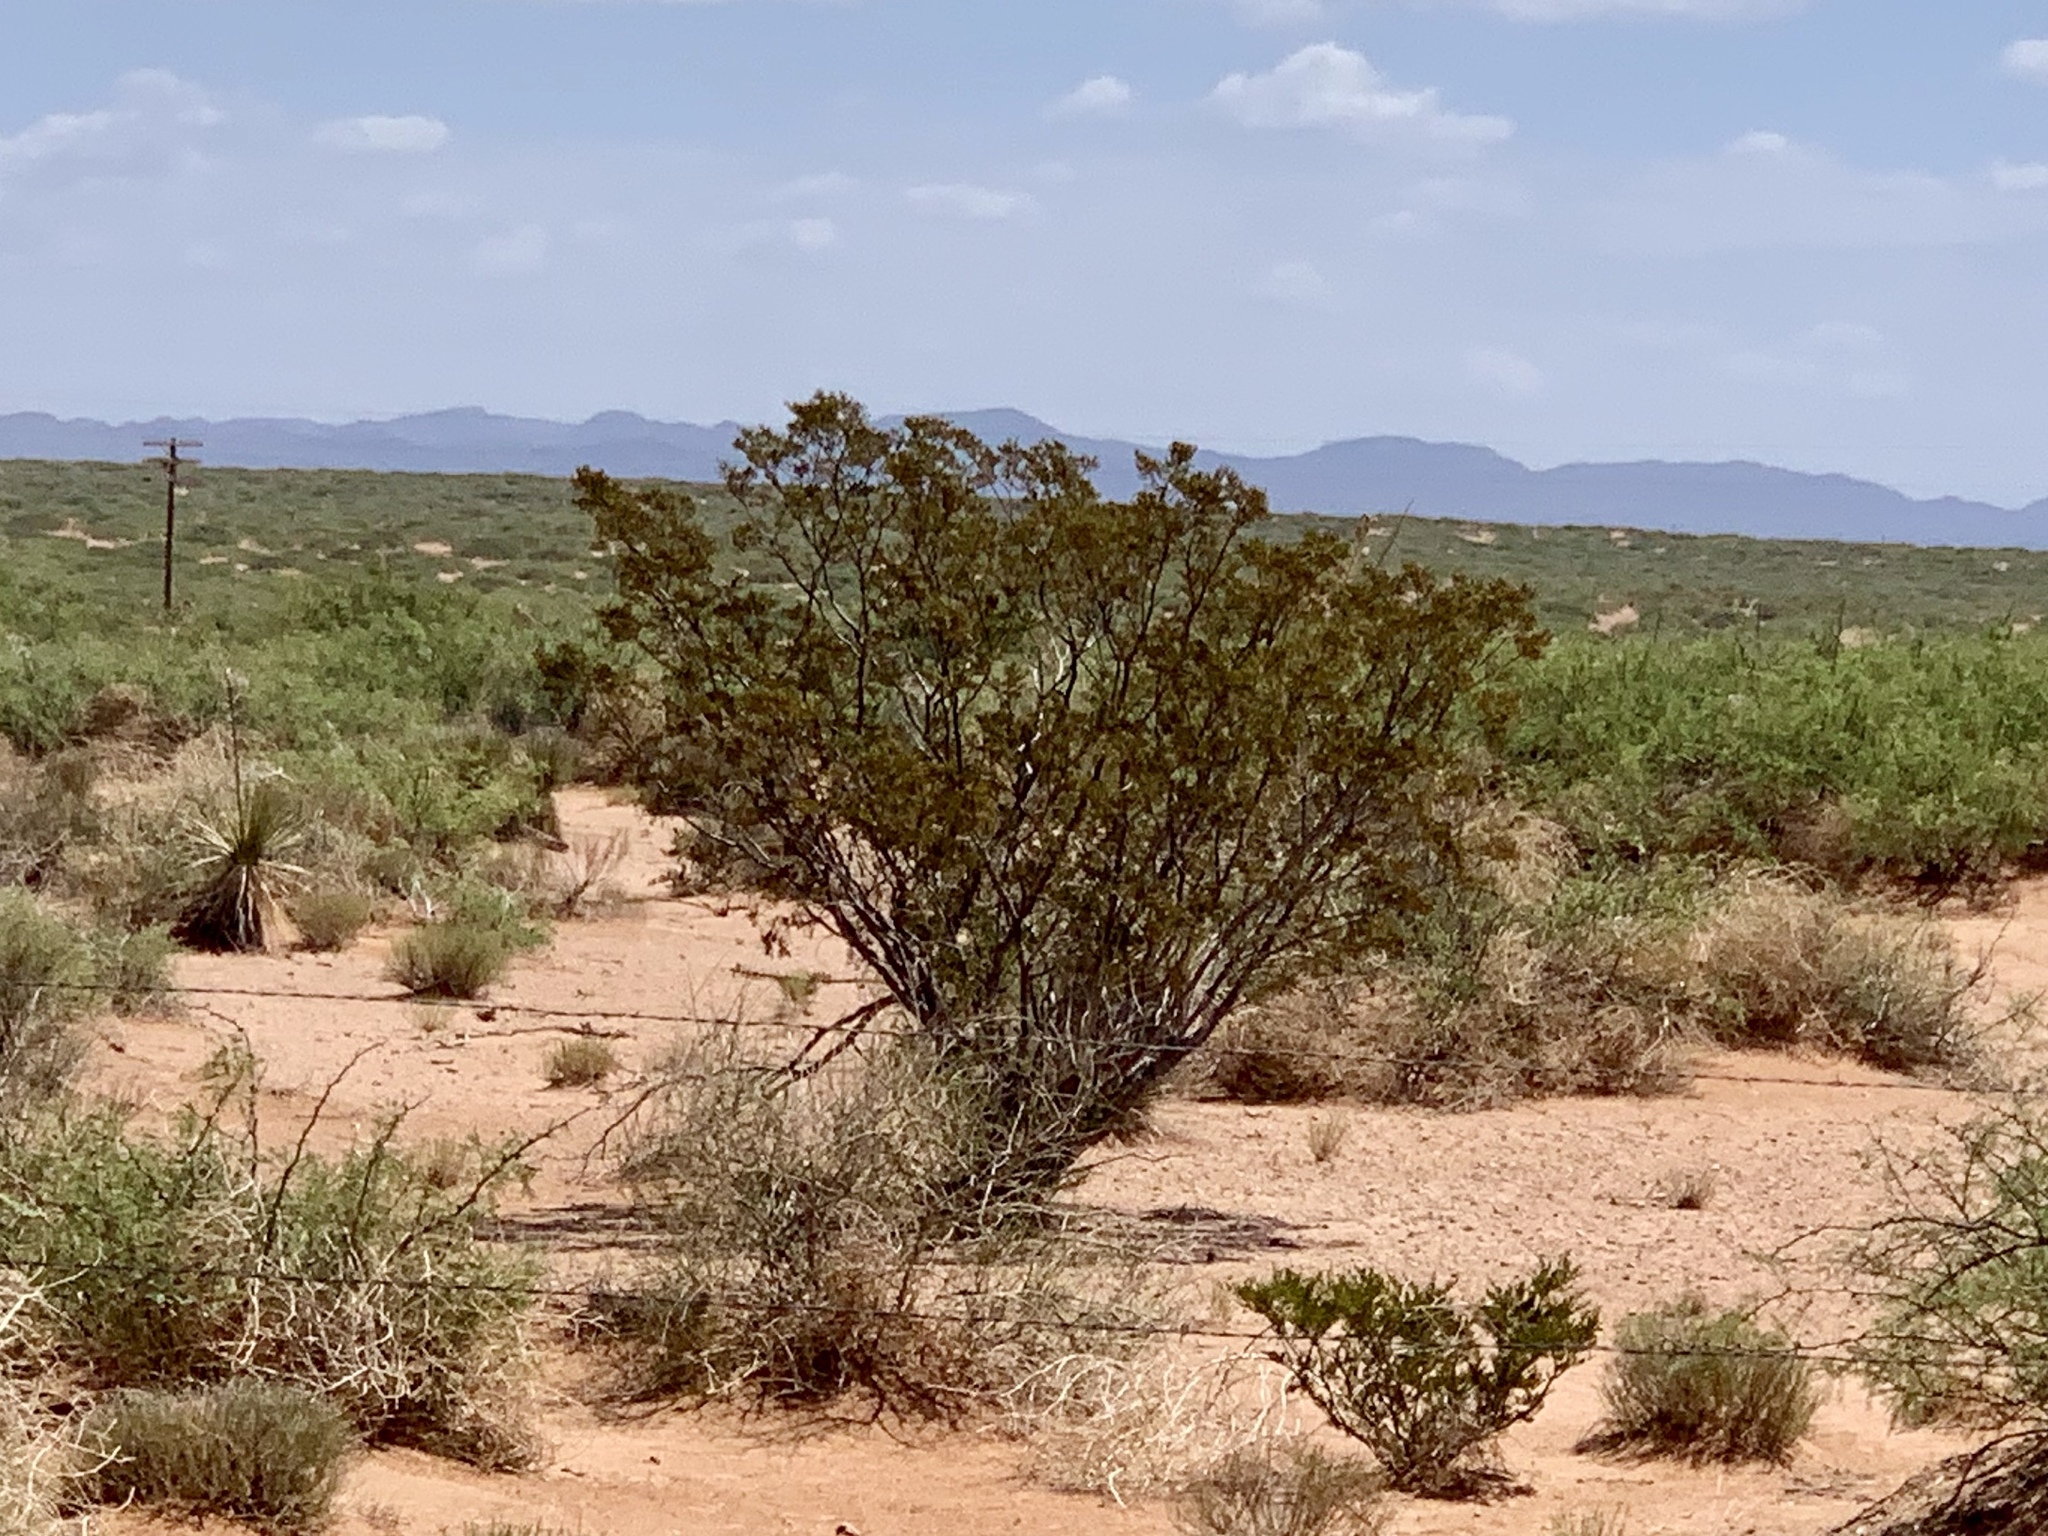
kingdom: Plantae
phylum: Tracheophyta
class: Magnoliopsida
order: Zygophyllales
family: Zygophyllaceae
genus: Larrea
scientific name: Larrea tridentata
